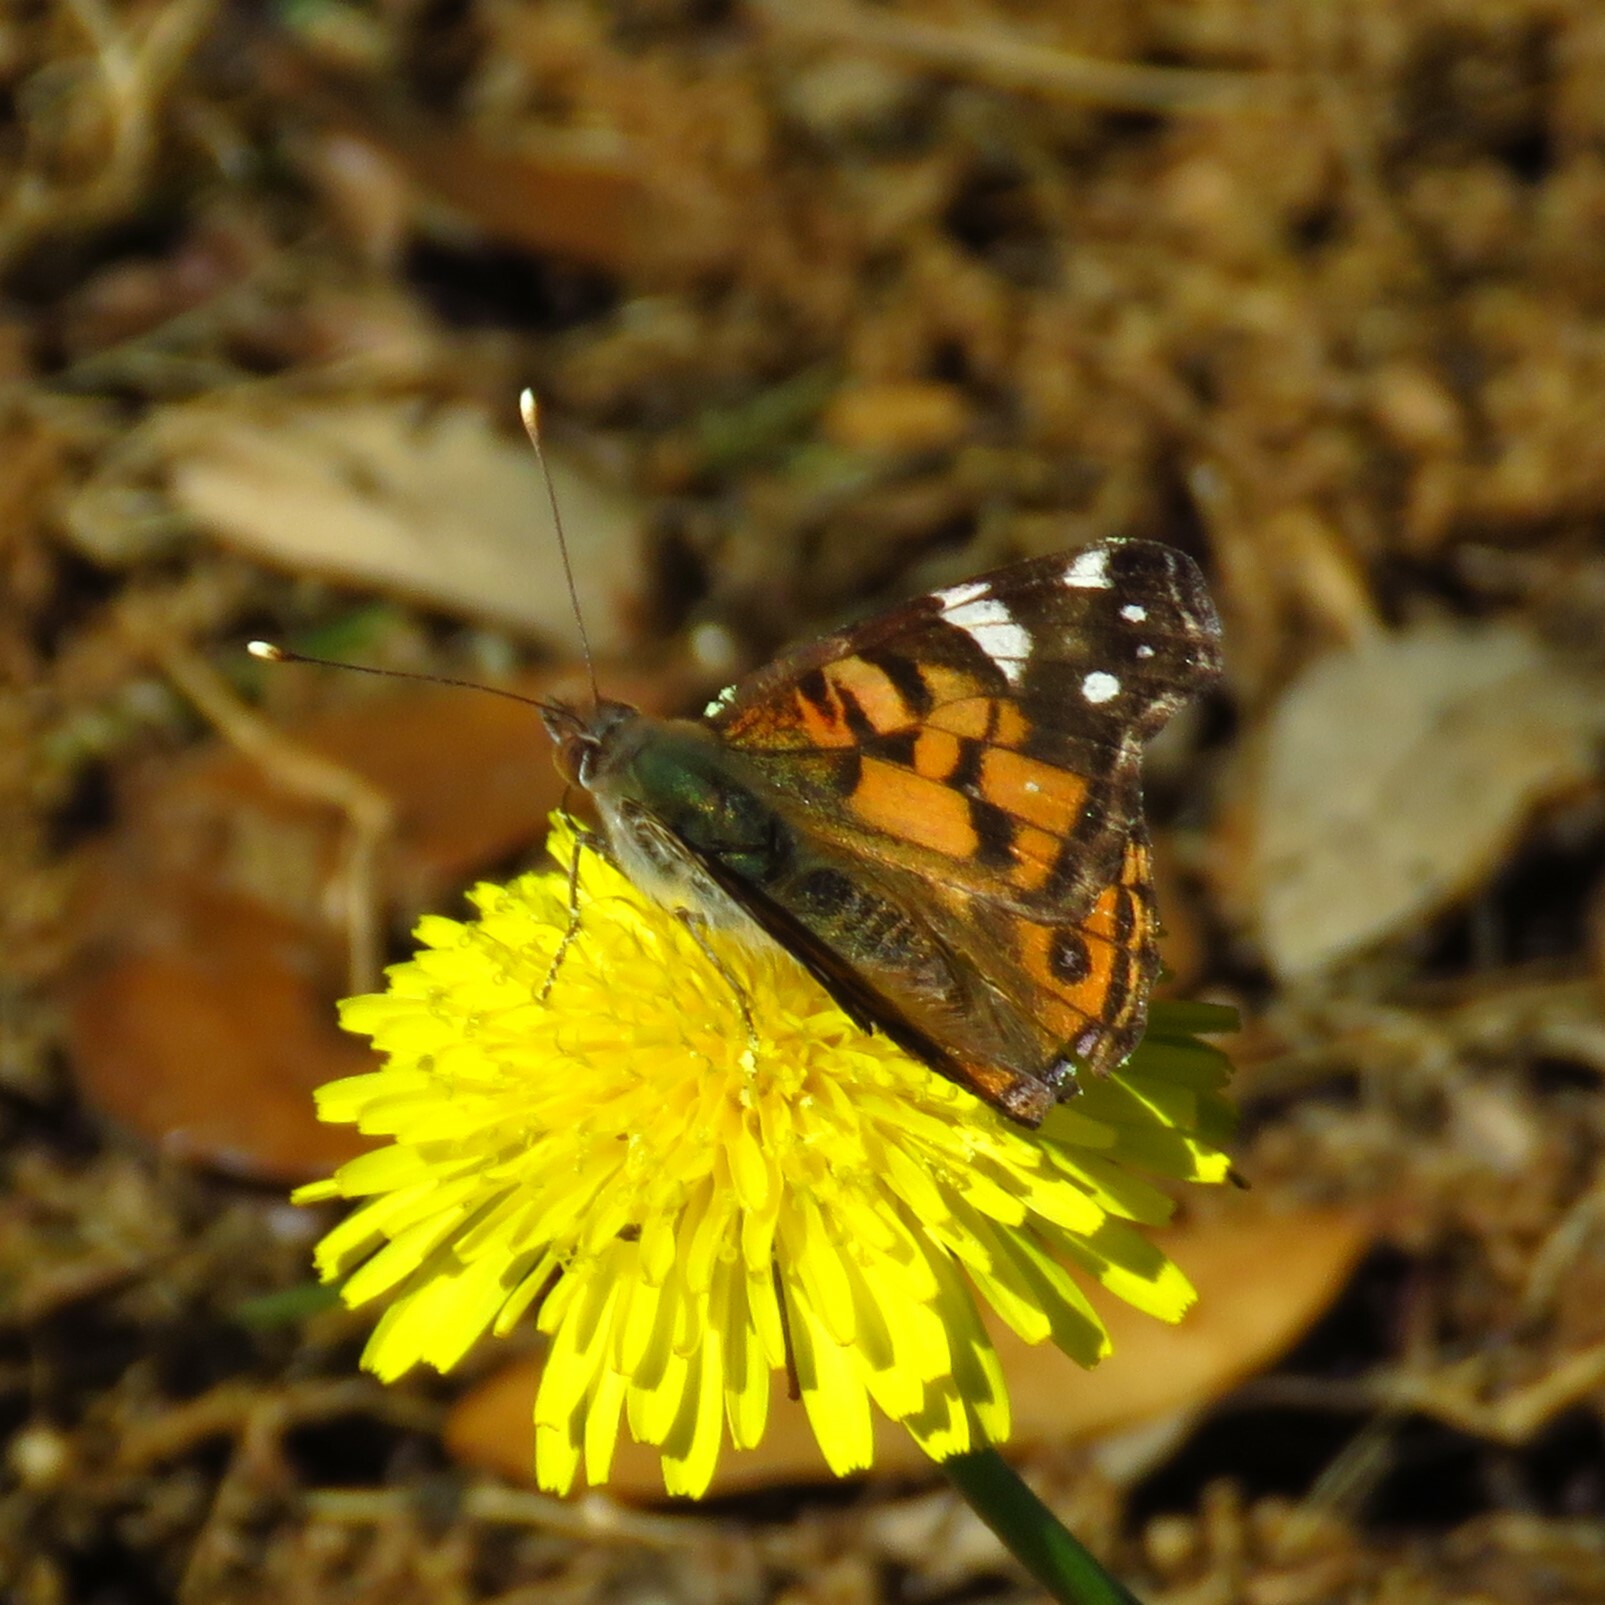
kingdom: Animalia
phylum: Arthropoda
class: Insecta
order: Lepidoptera
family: Nymphalidae
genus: Vanessa
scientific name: Vanessa virginiensis
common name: American lady
